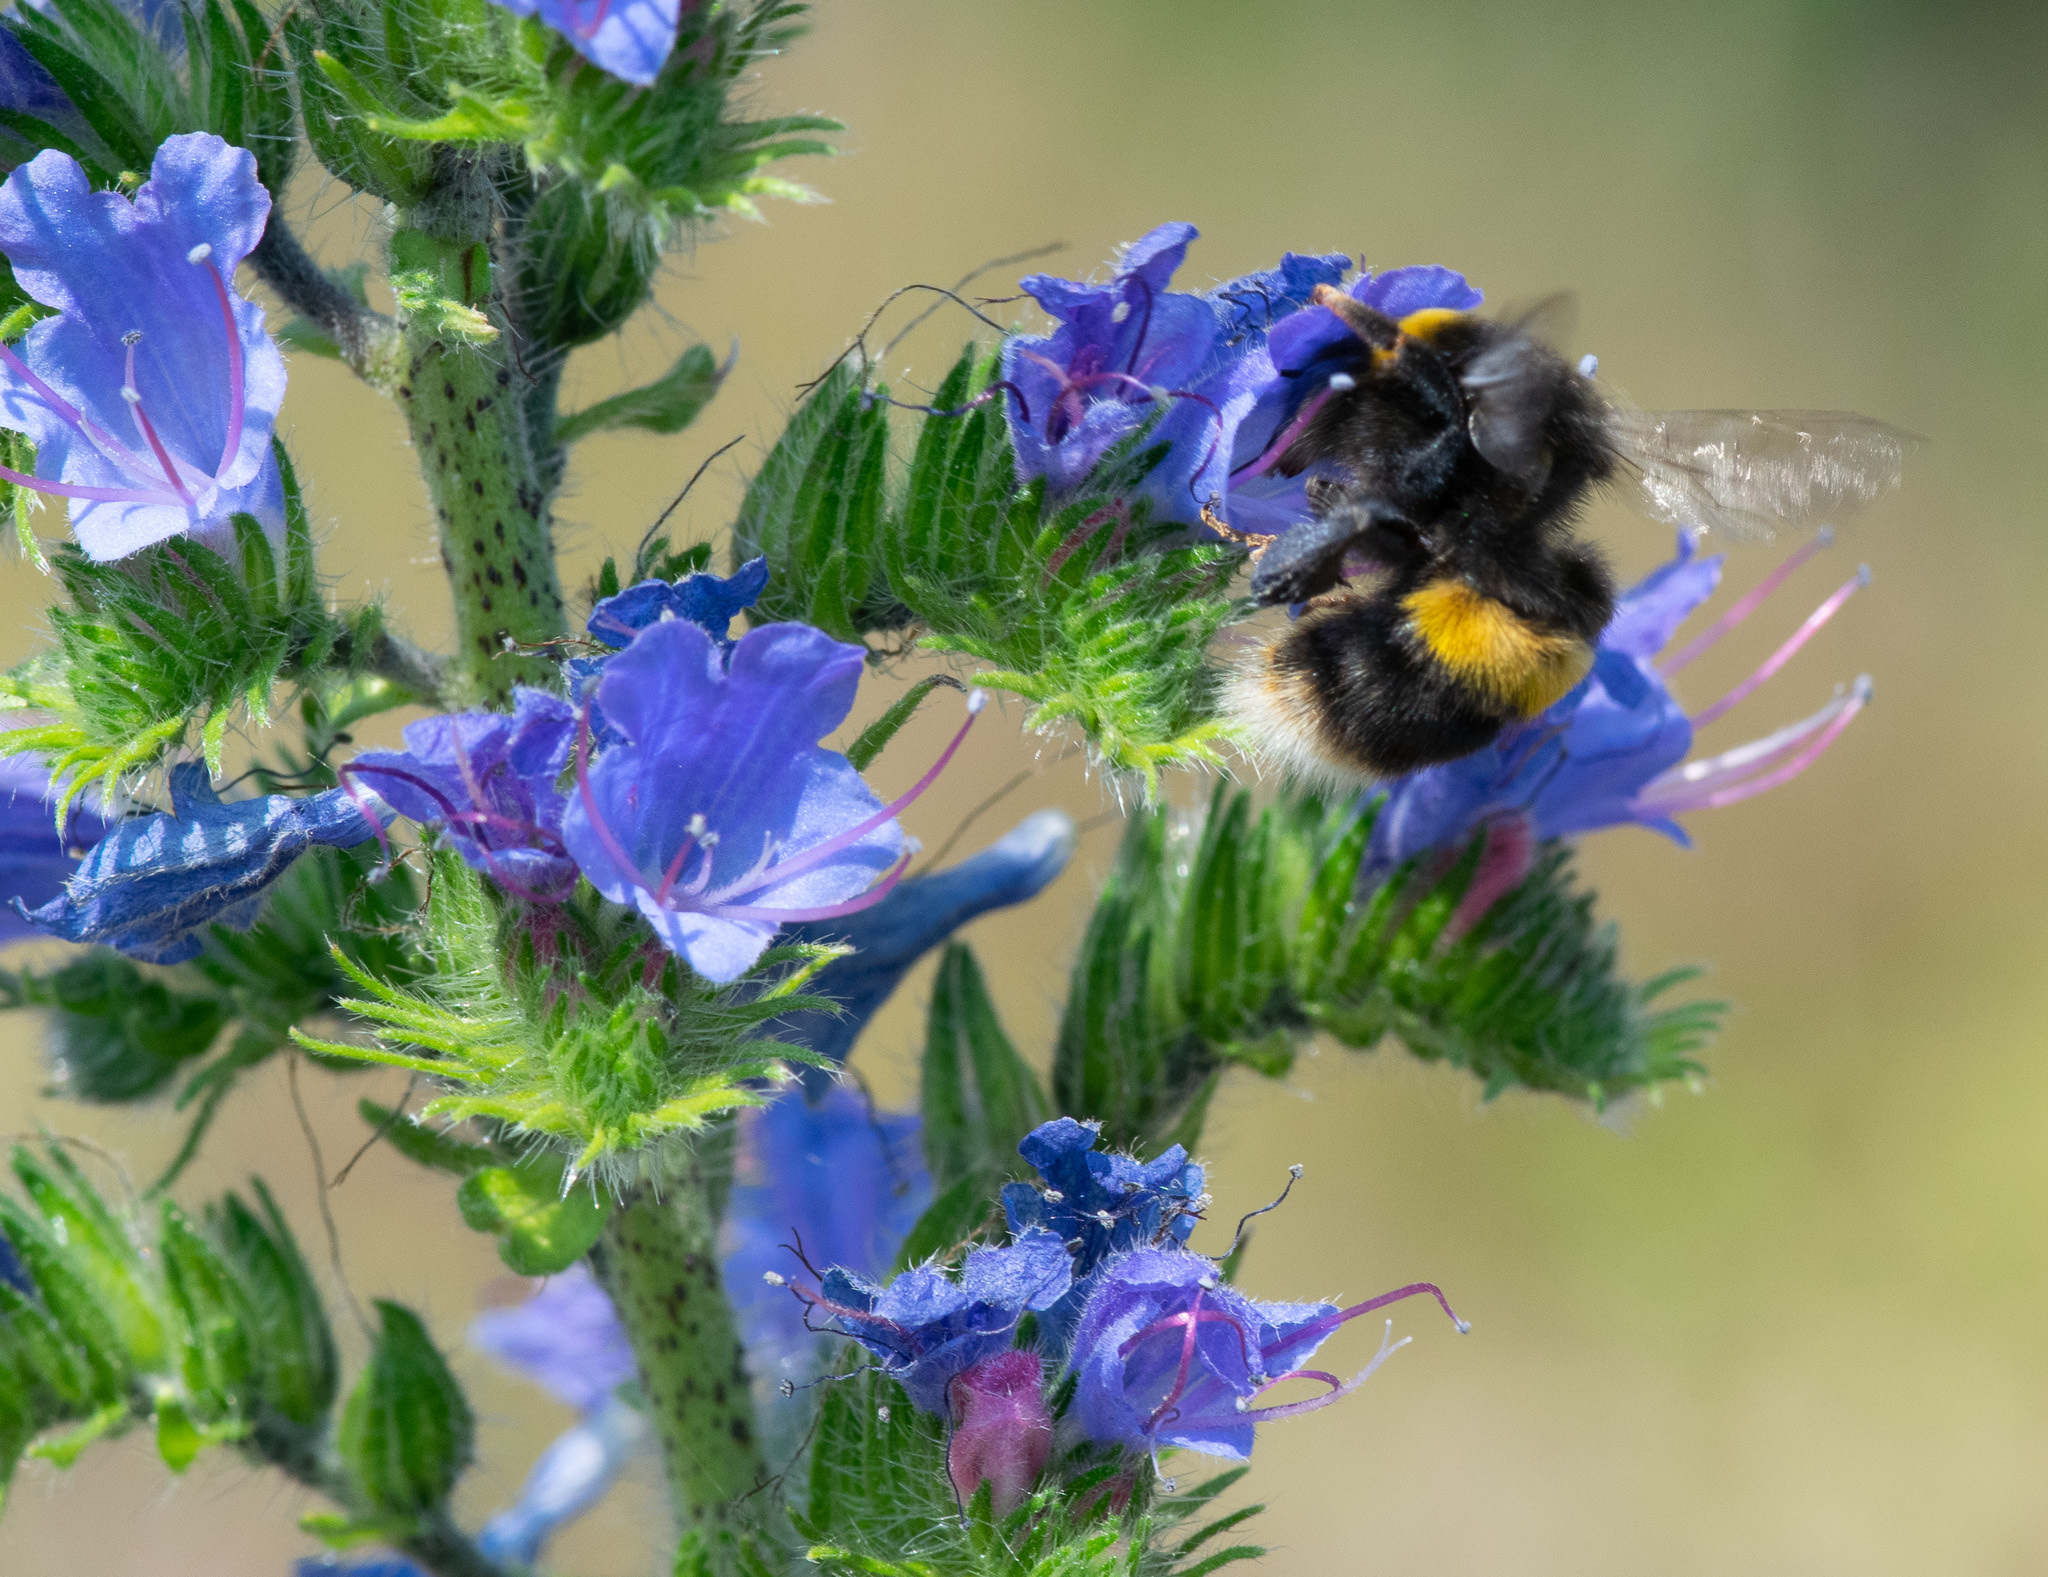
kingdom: Animalia
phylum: Arthropoda
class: Insecta
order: Hymenoptera
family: Apidae
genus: Bombus
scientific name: Bombus terrestris
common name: Buff-tailed bumblebee
